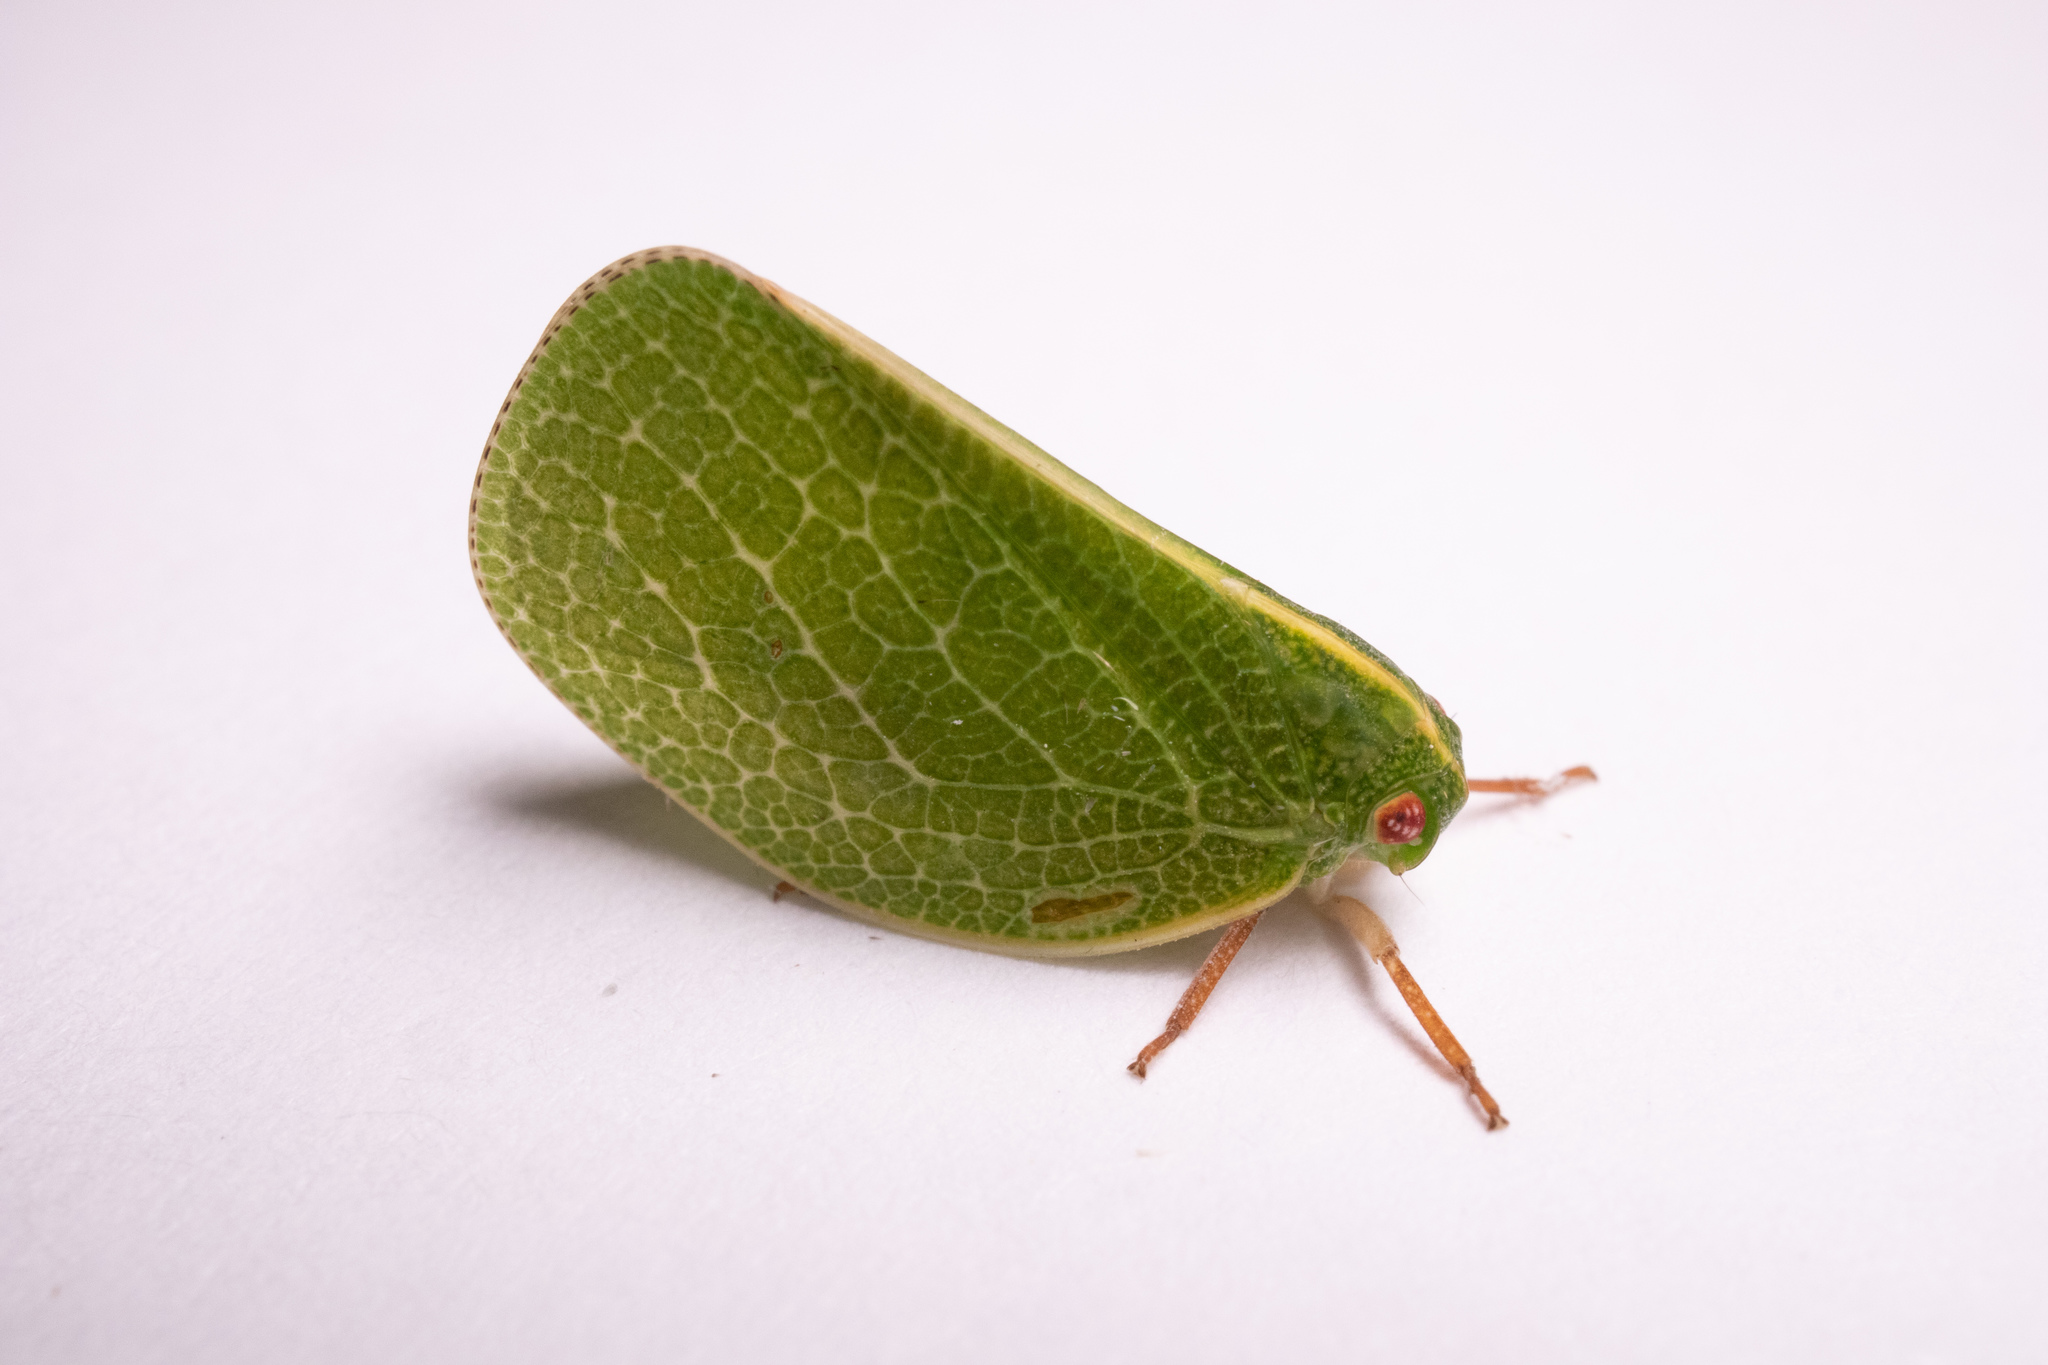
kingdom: Animalia
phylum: Arthropoda
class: Insecta
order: Hemiptera
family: Acanaloniidae
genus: Acanalonia
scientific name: Acanalonia servillei
